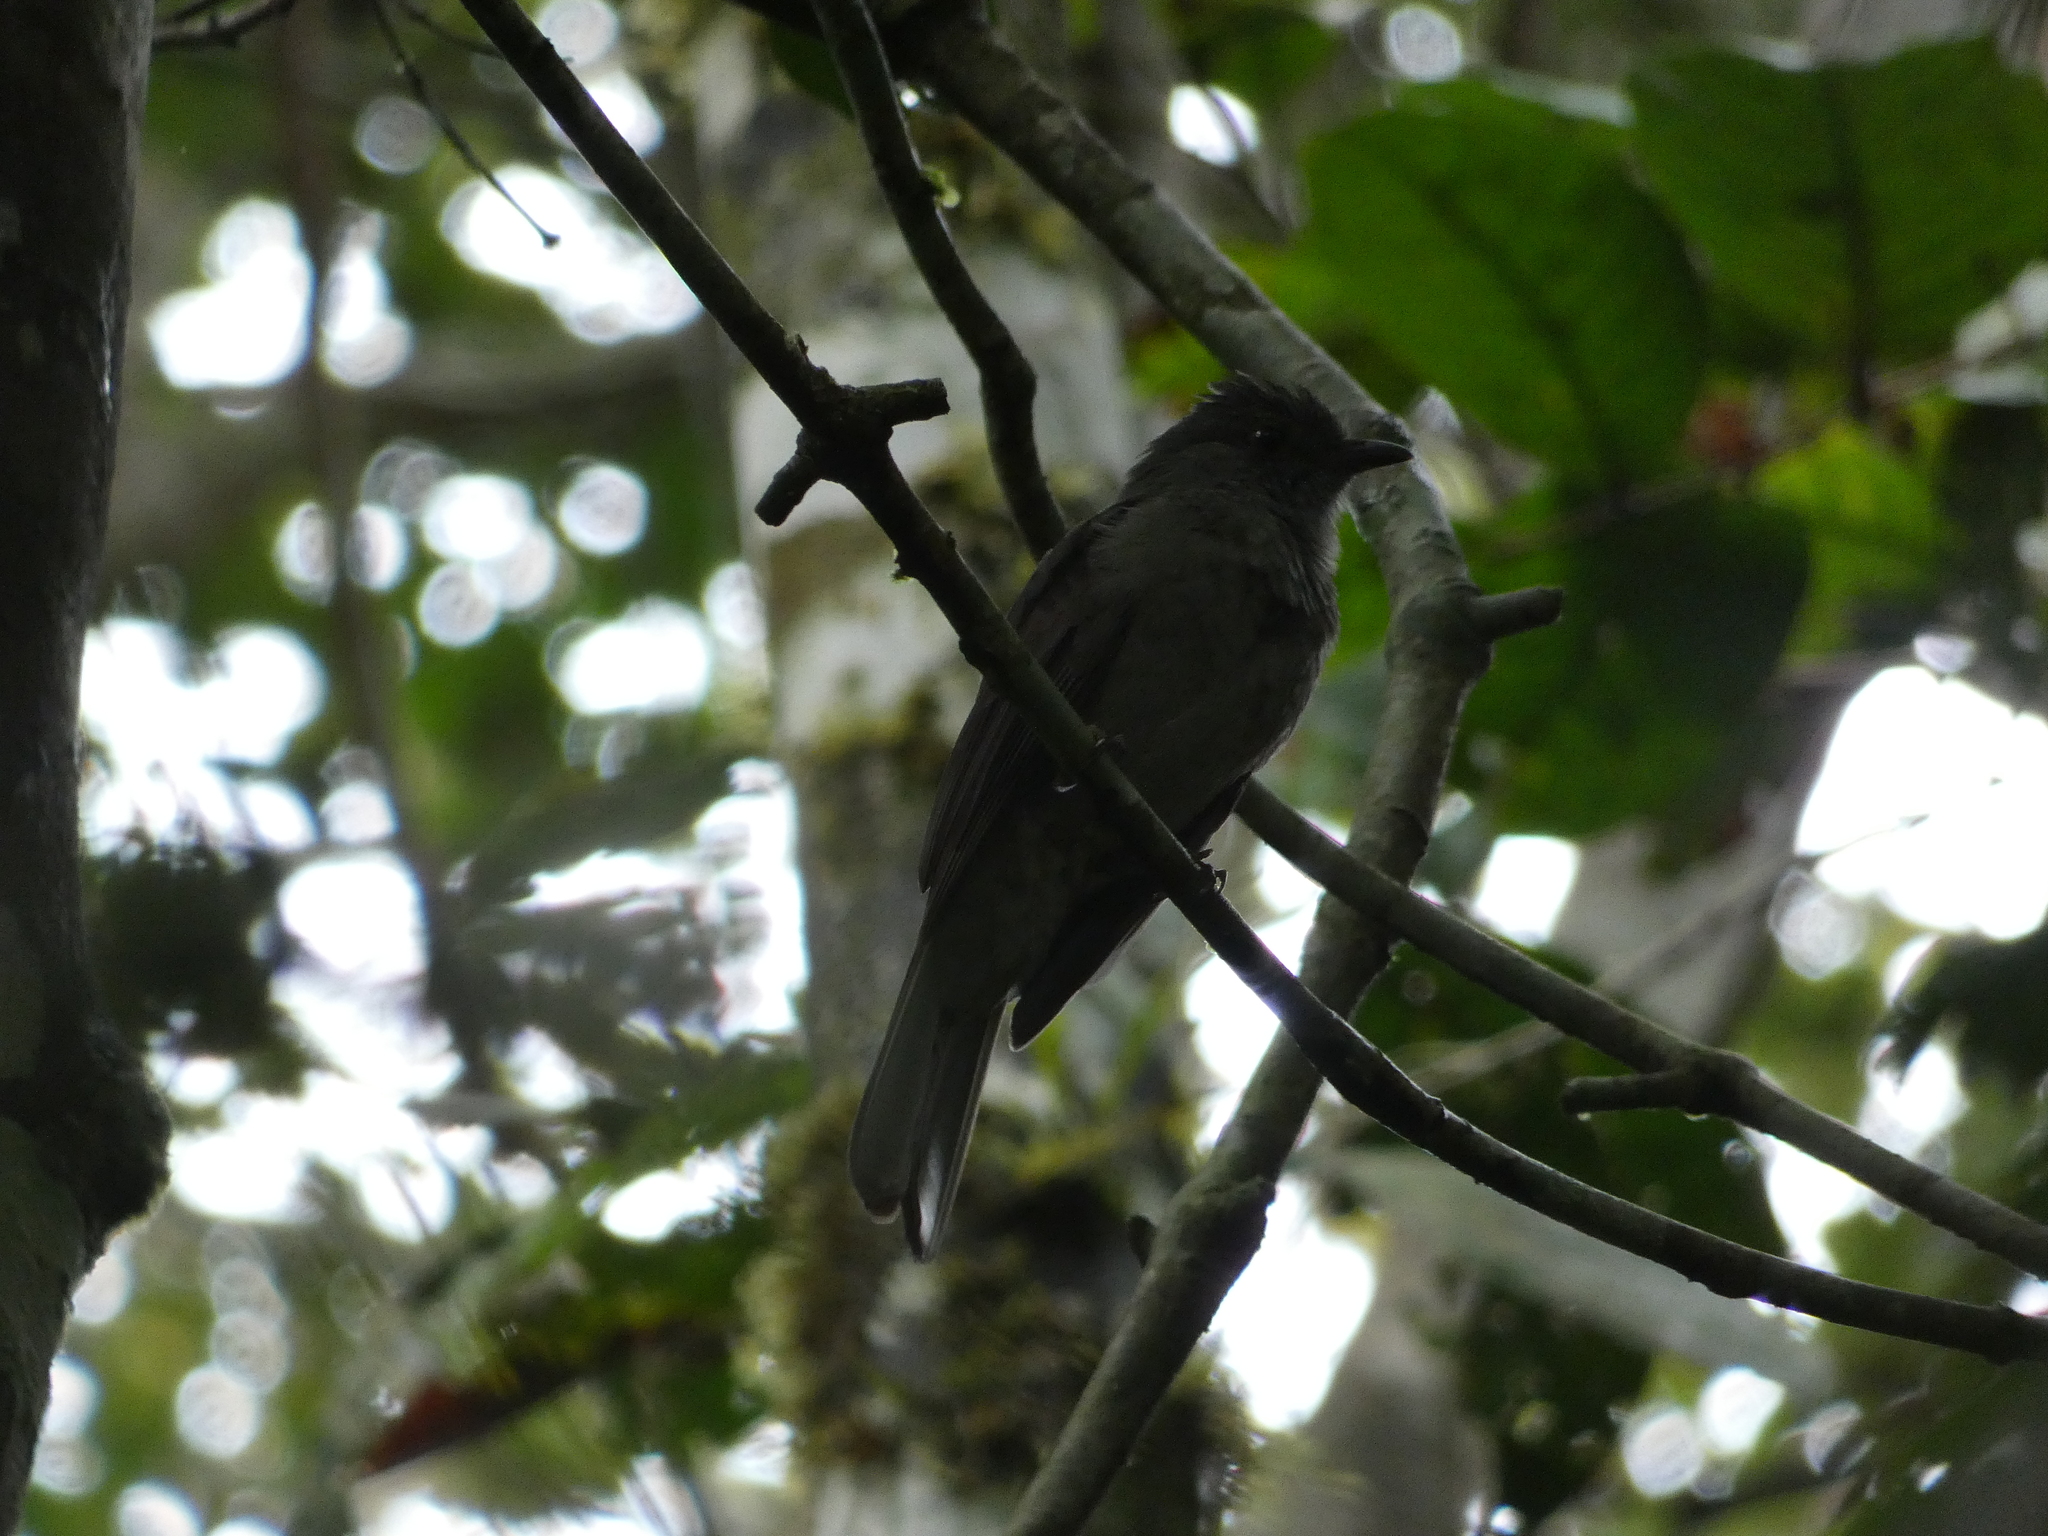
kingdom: Animalia
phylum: Chordata
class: Aves
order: Passeriformes
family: Cotingidae
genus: Lipaugus
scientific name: Lipaugus vociferans
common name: Screaming piha
